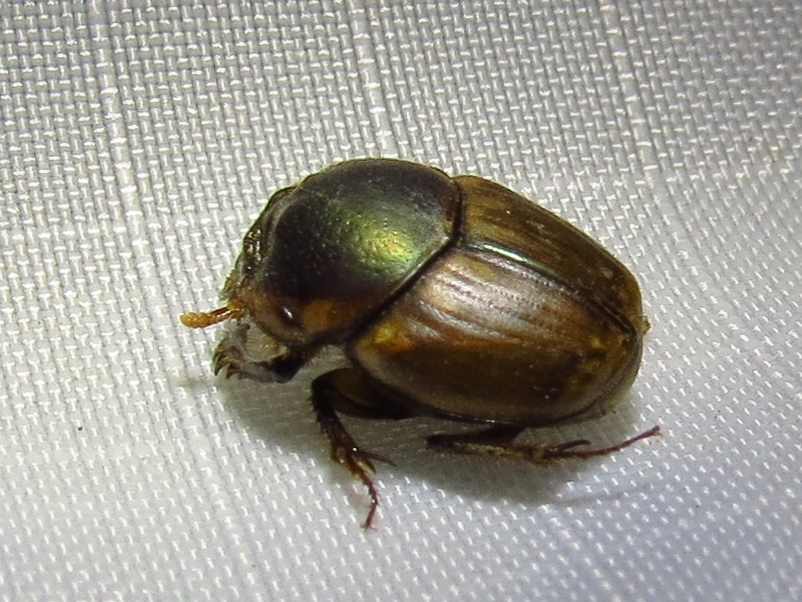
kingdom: Animalia
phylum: Arthropoda
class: Insecta
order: Coleoptera
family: Scarabaeidae
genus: Digitonthophagus
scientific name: Digitonthophagus gazella
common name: Brown dung beetle
